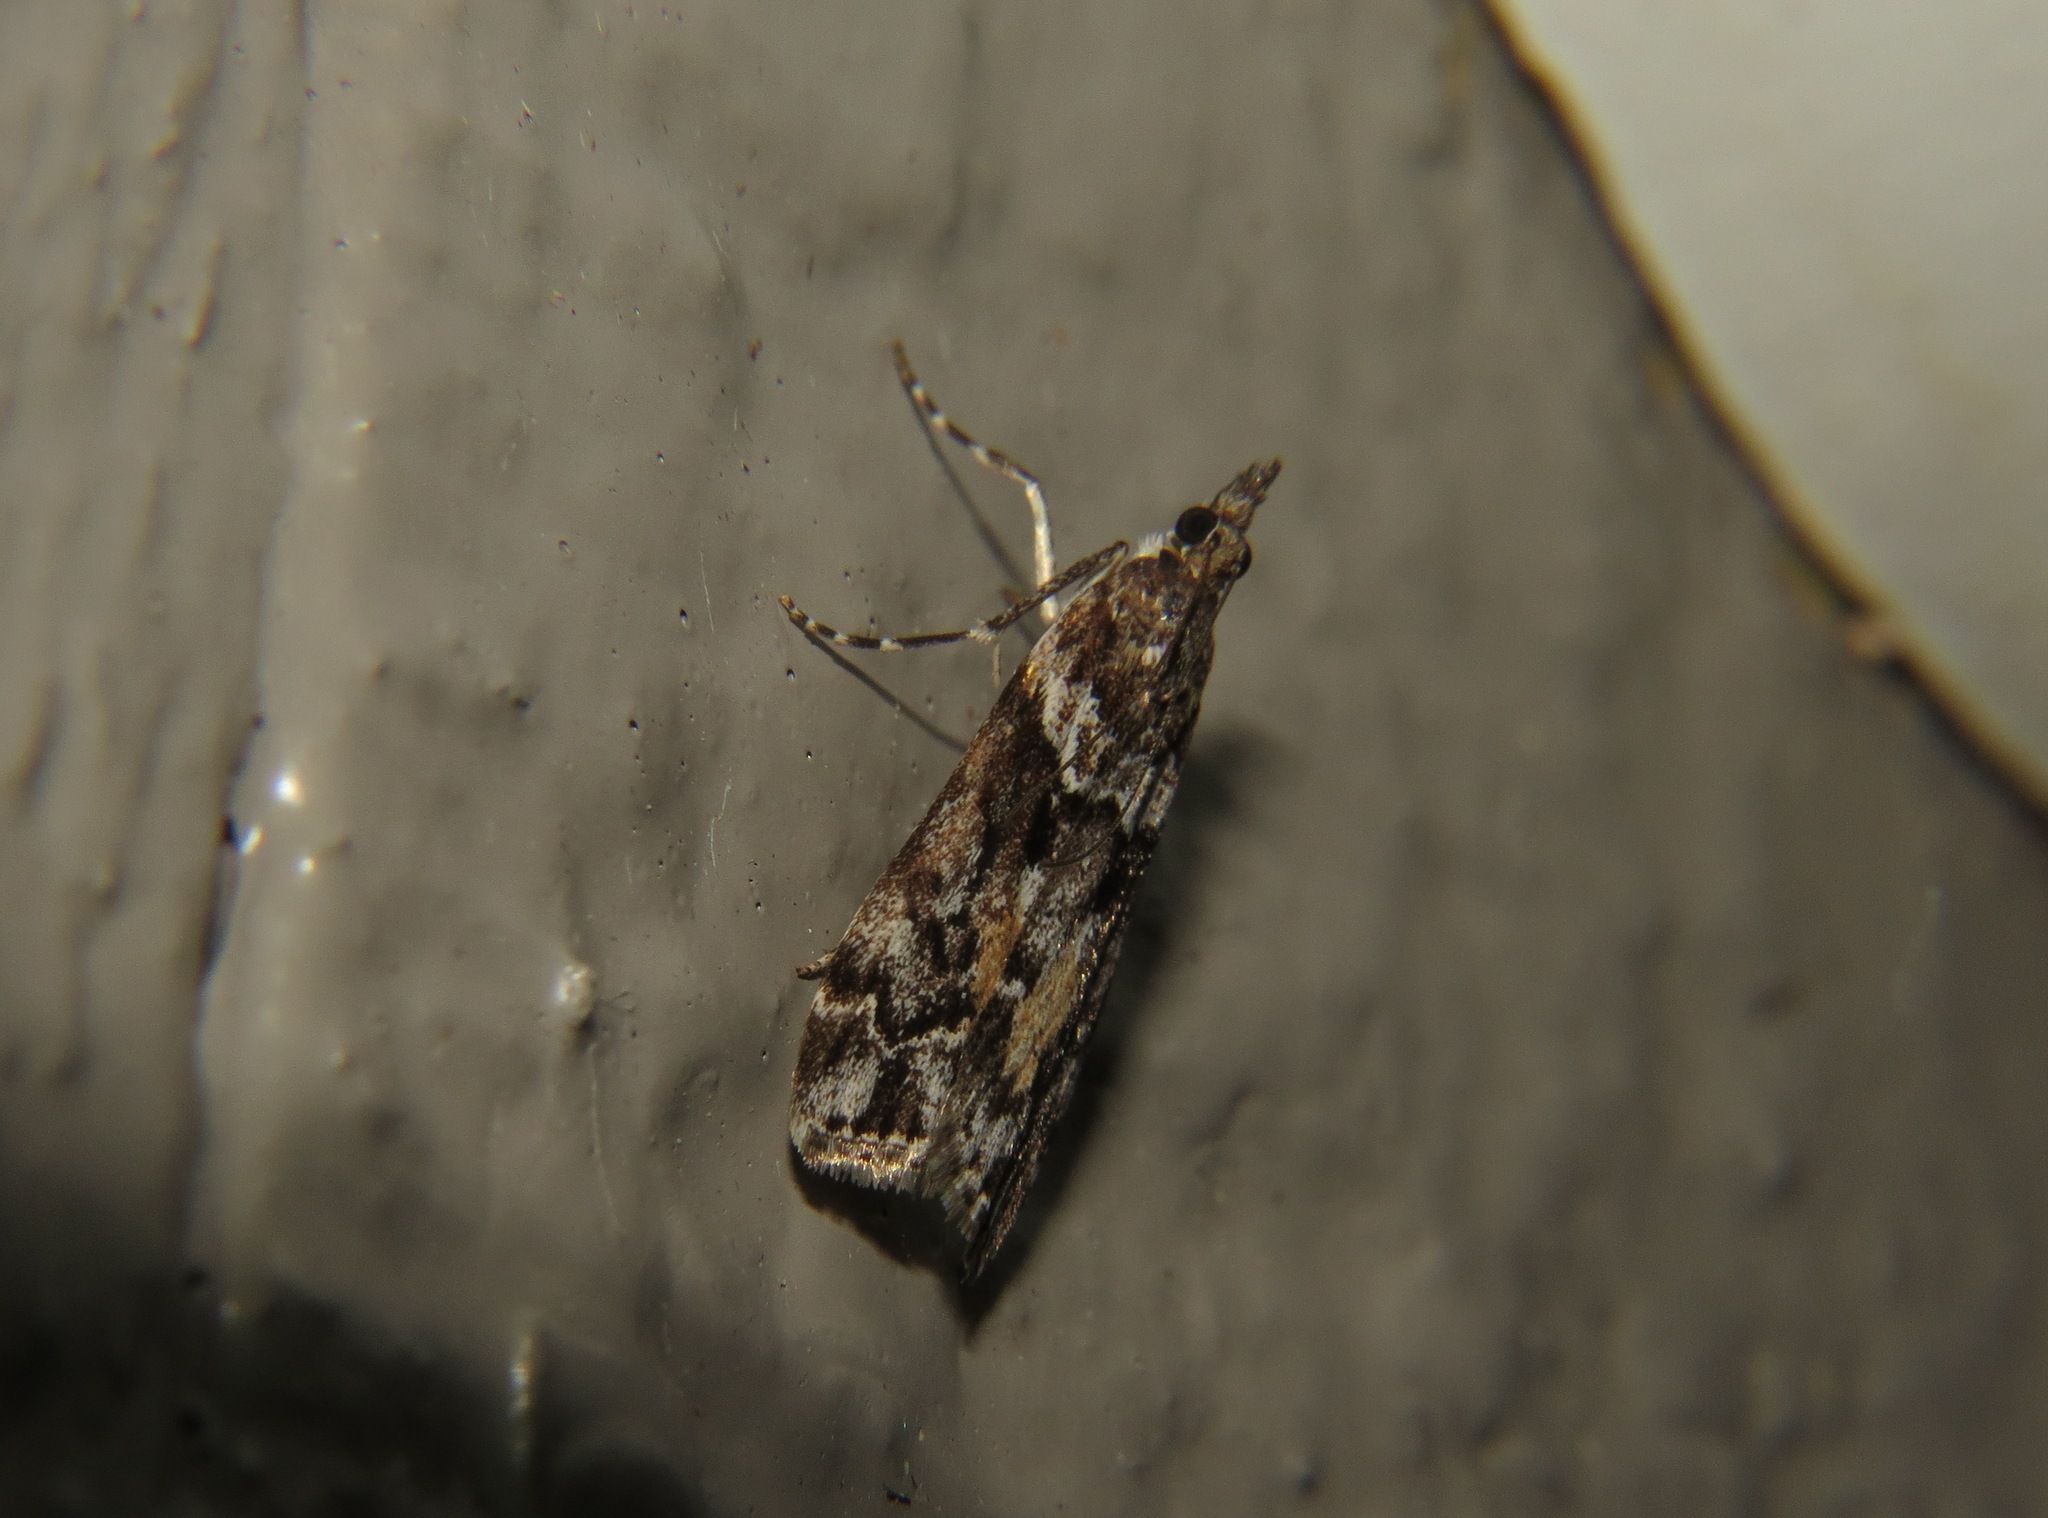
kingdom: Animalia
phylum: Arthropoda
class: Insecta
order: Lepidoptera
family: Crambidae
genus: Eudonia
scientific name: Eudonia submarginalis
